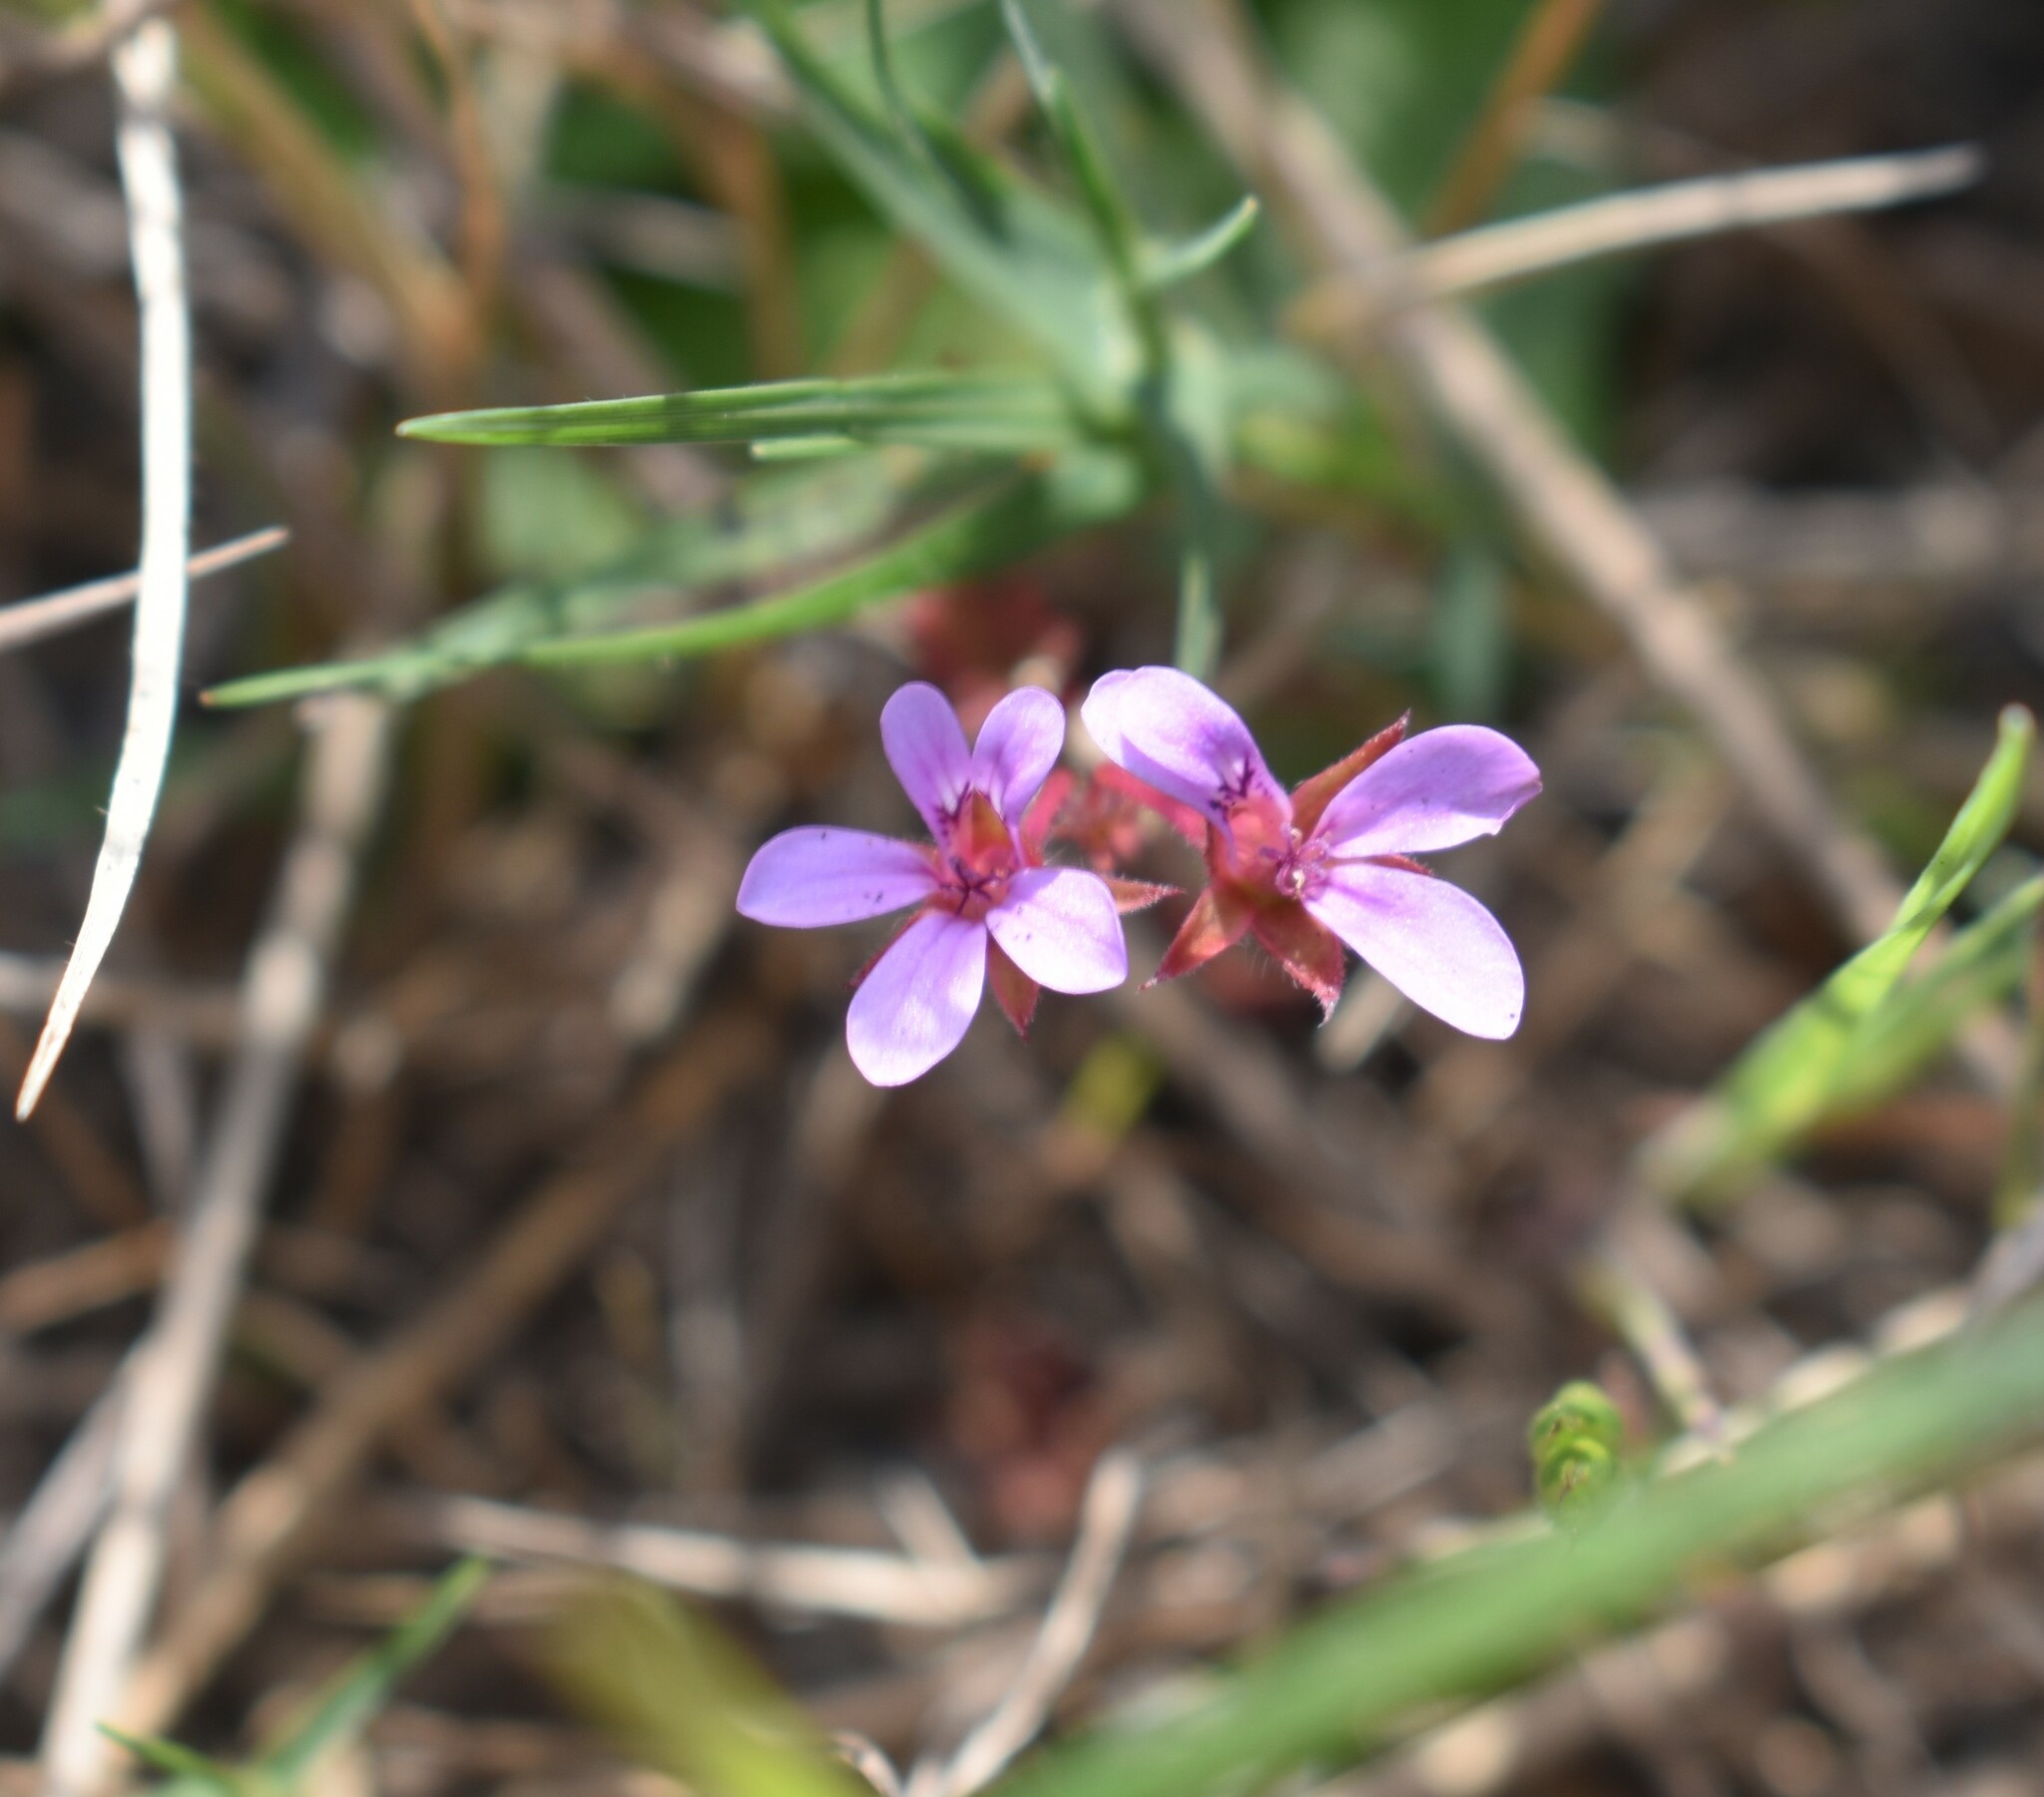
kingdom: Plantae
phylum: Tracheophyta
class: Magnoliopsida
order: Geraniales
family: Geraniaceae
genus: Pelargonium
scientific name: Pelargonium grossularioides
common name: Gooseberry geranium
